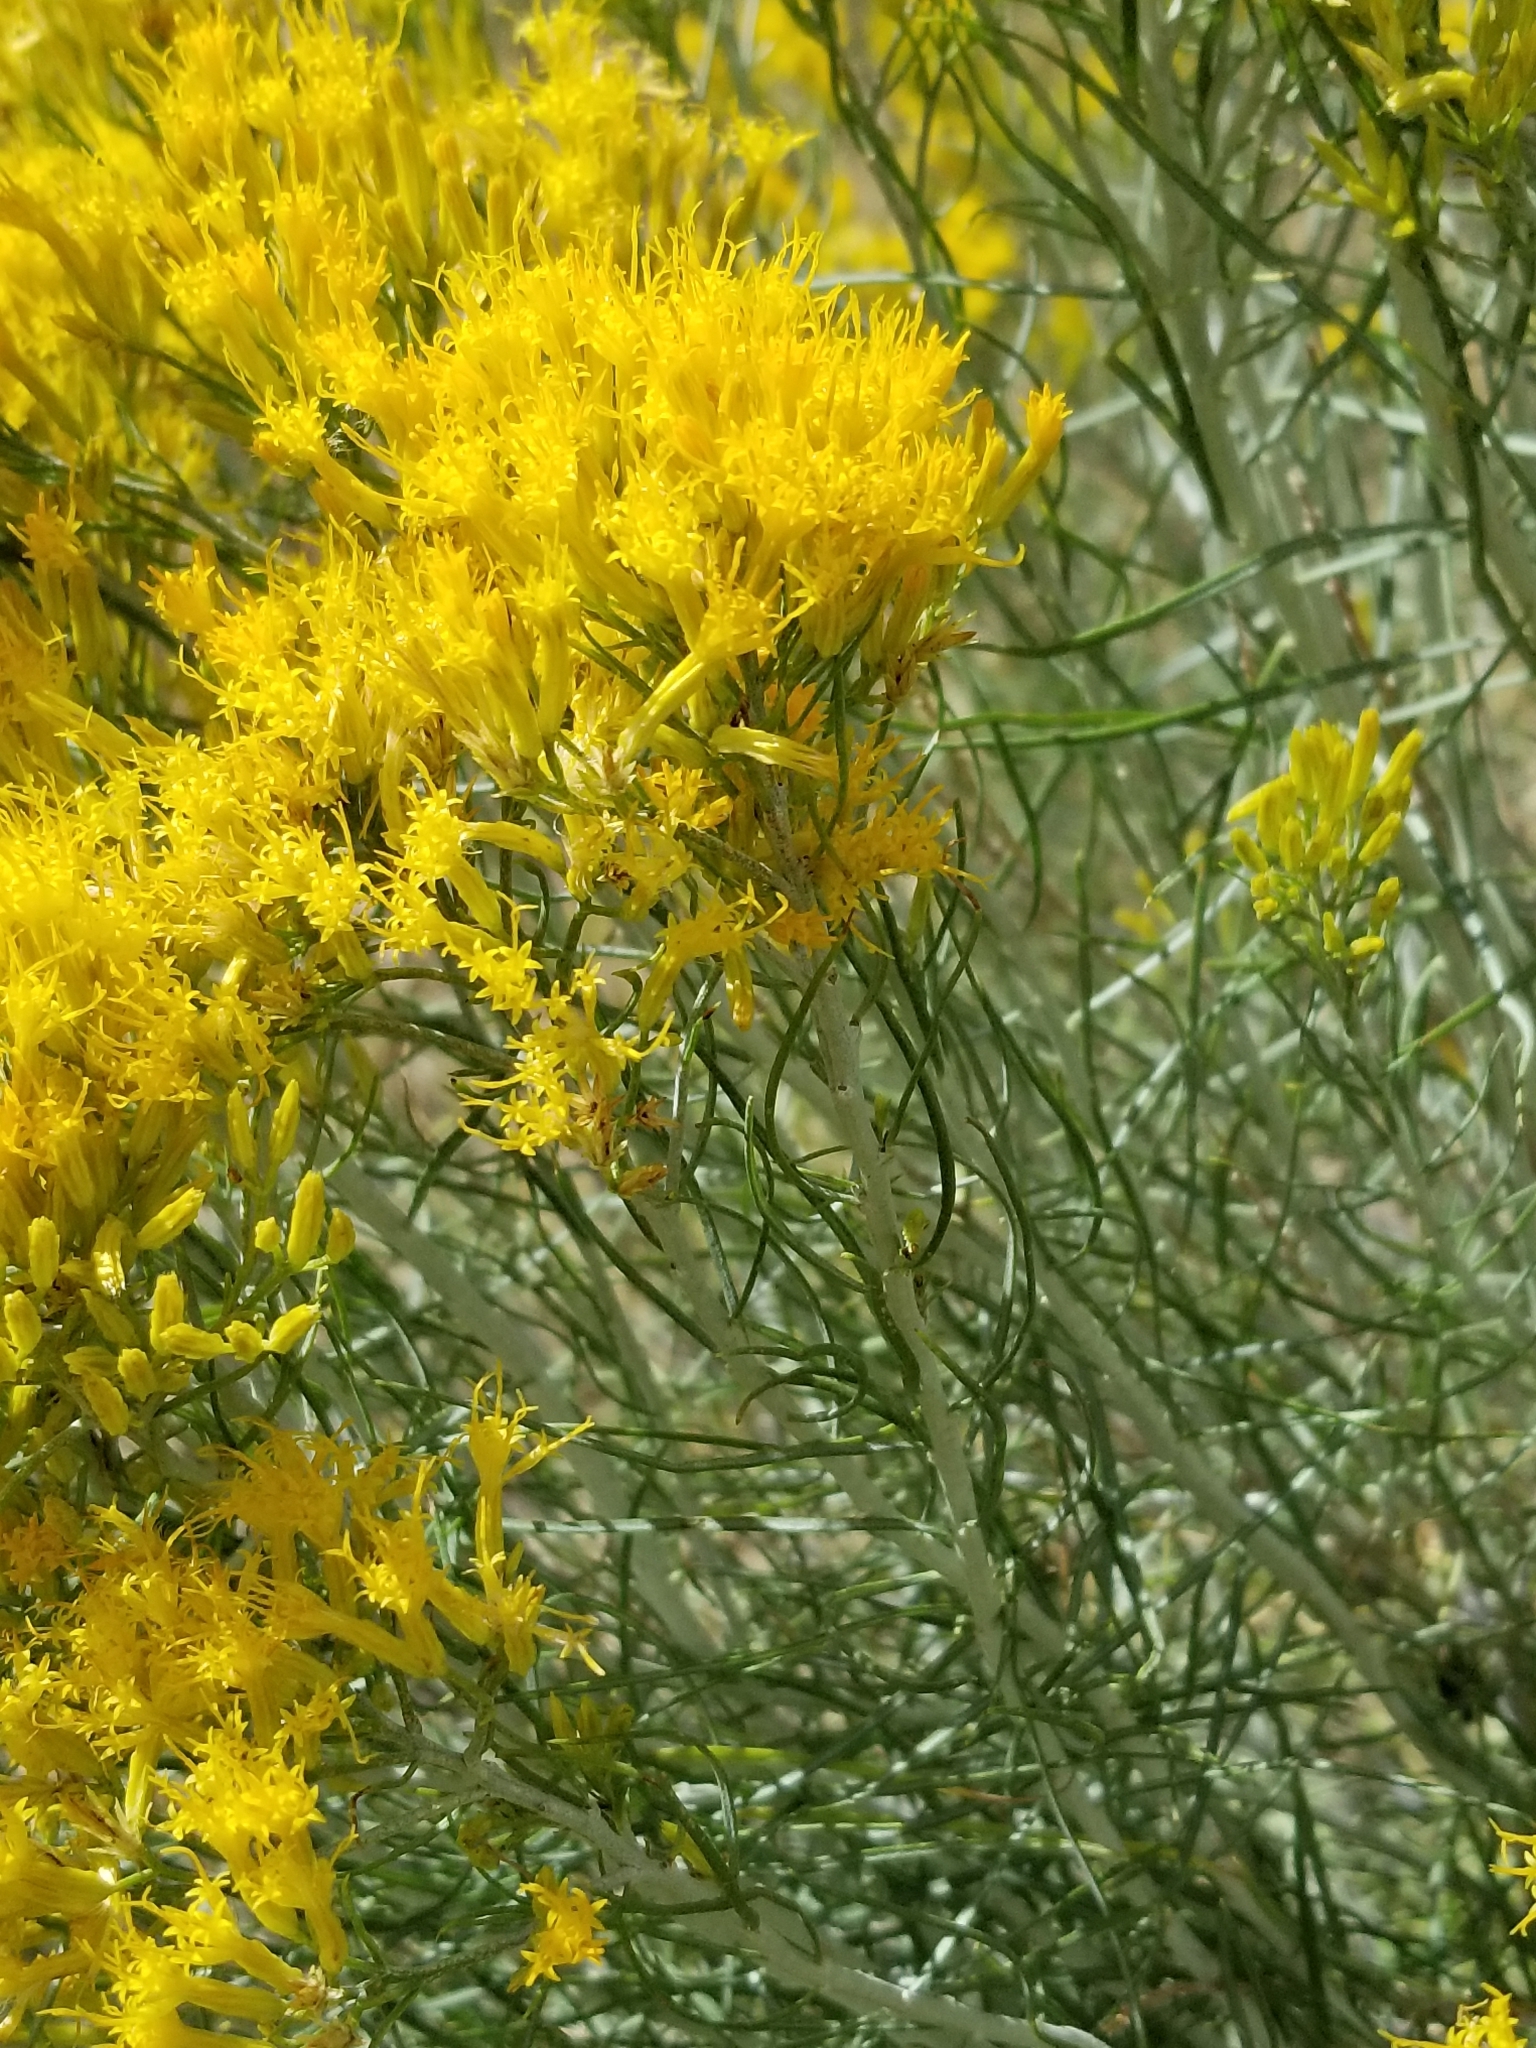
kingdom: Plantae
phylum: Tracheophyta
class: Magnoliopsida
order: Asterales
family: Asteraceae
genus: Ericameria
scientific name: Ericameria nauseosa
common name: Rubber rabbitbrush
